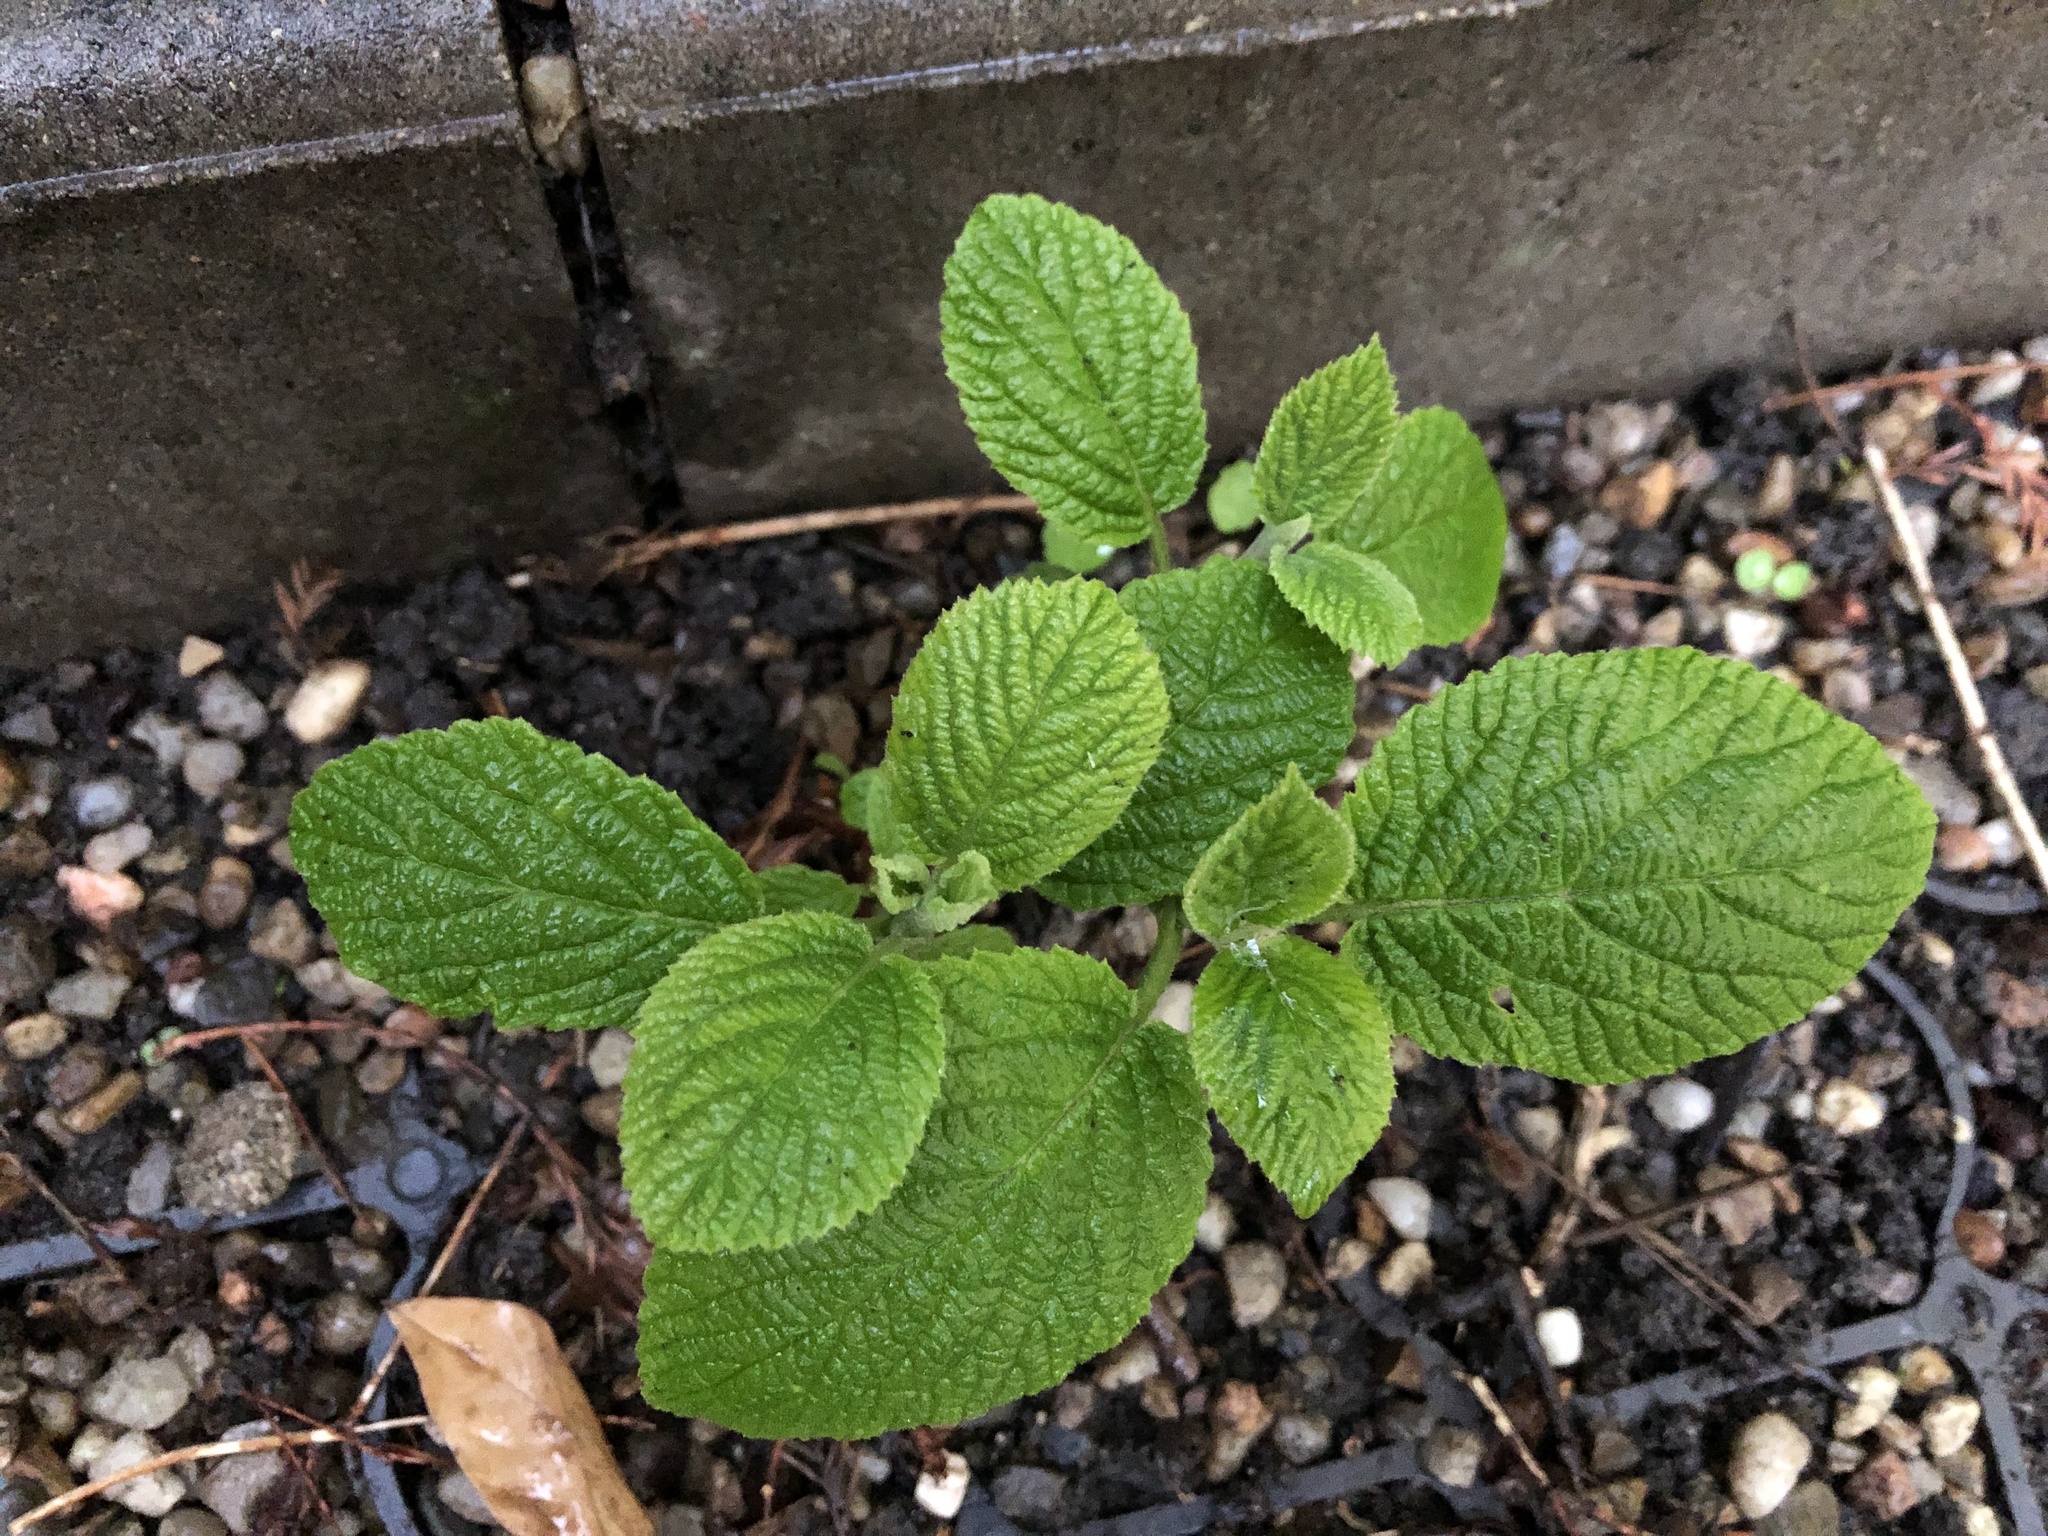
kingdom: Plantae
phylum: Tracheophyta
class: Magnoliopsida
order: Dipsacales
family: Viburnaceae
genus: Viburnum
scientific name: Viburnum lantana
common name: Wayfaring tree
